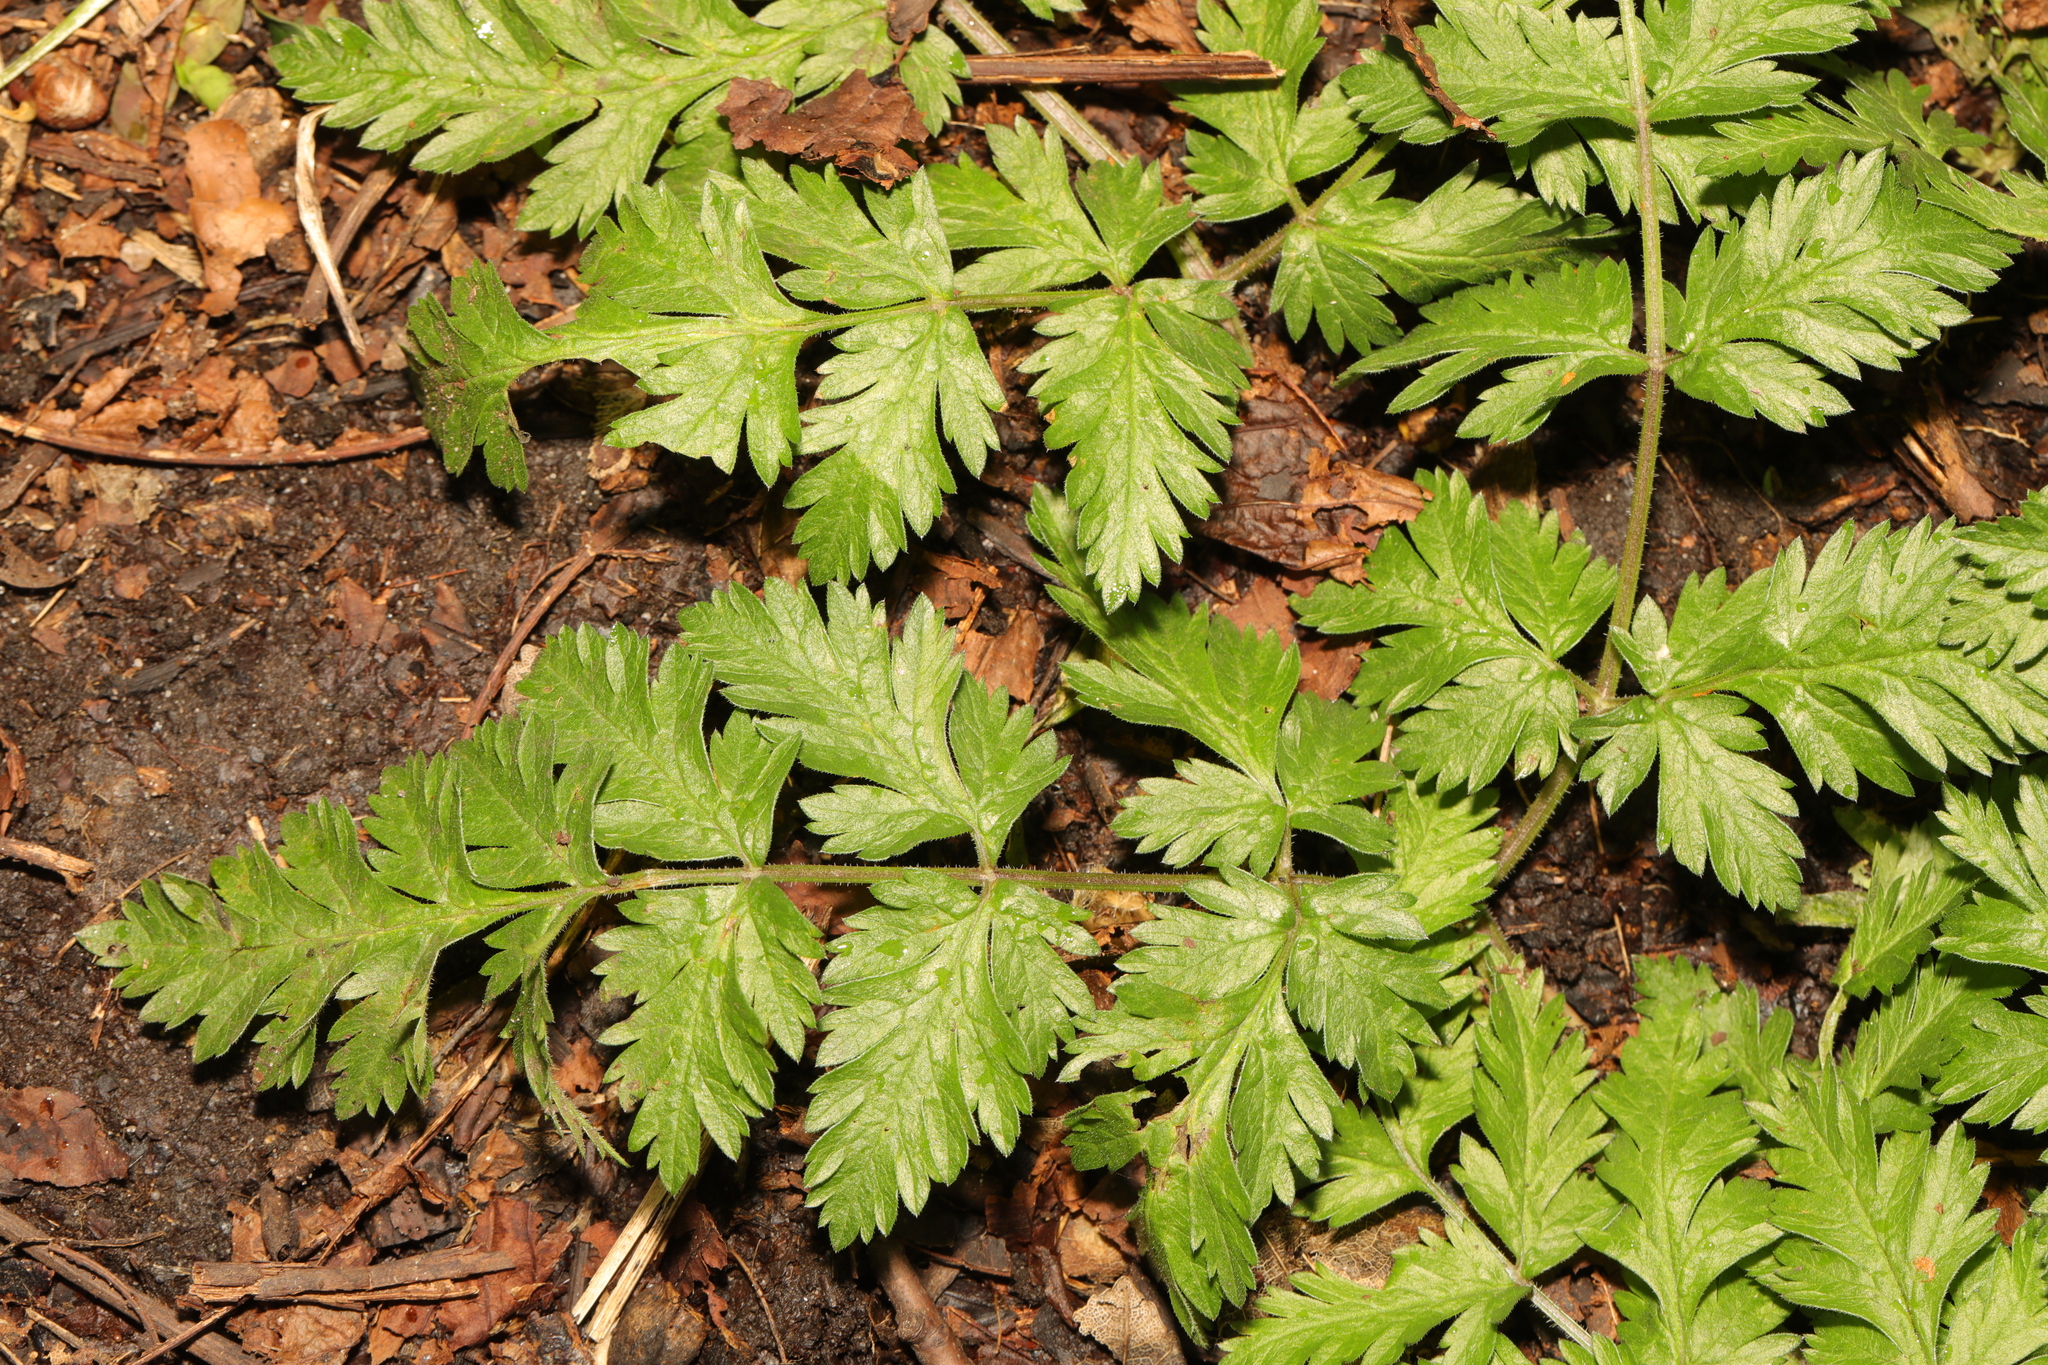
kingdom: Plantae
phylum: Tracheophyta
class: Magnoliopsida
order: Apiales
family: Apiaceae
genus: Anthriscus
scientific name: Anthriscus sylvestris
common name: Cow parsley
